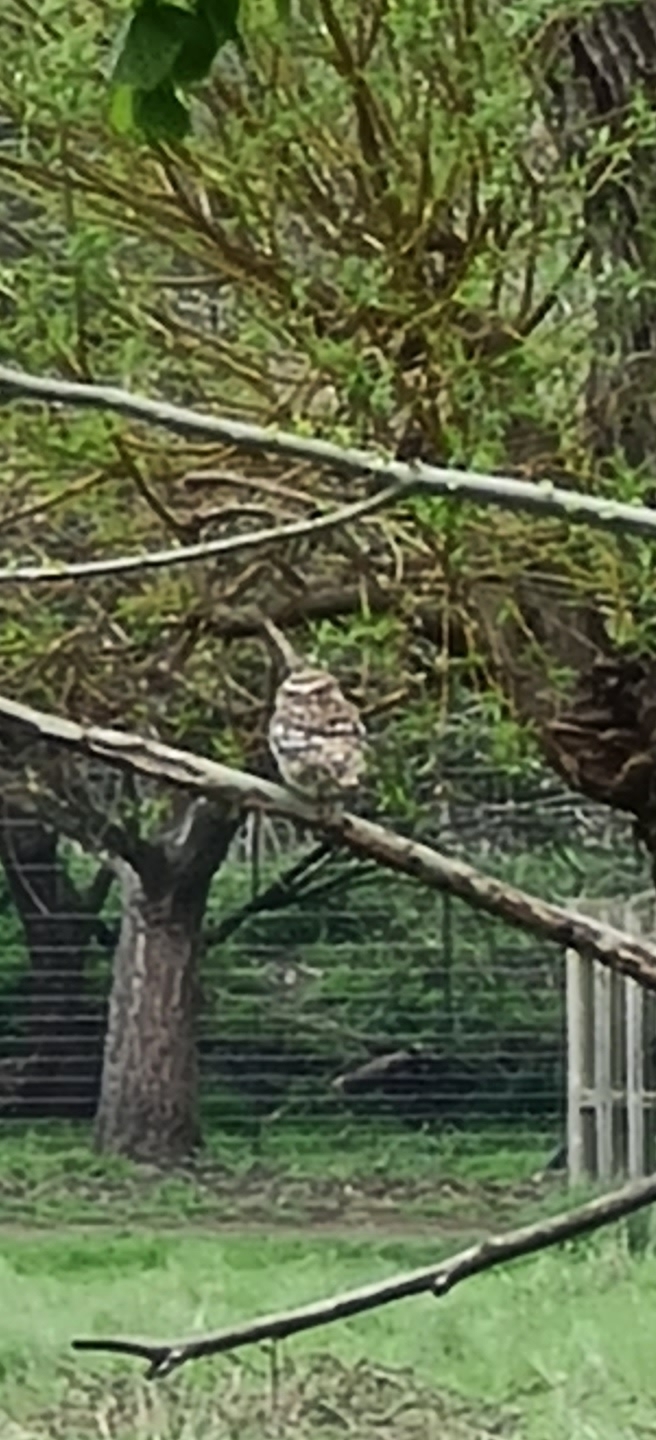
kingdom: Animalia
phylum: Chordata
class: Aves
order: Strigiformes
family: Strigidae
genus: Athene
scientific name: Athene noctua
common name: Little owl
